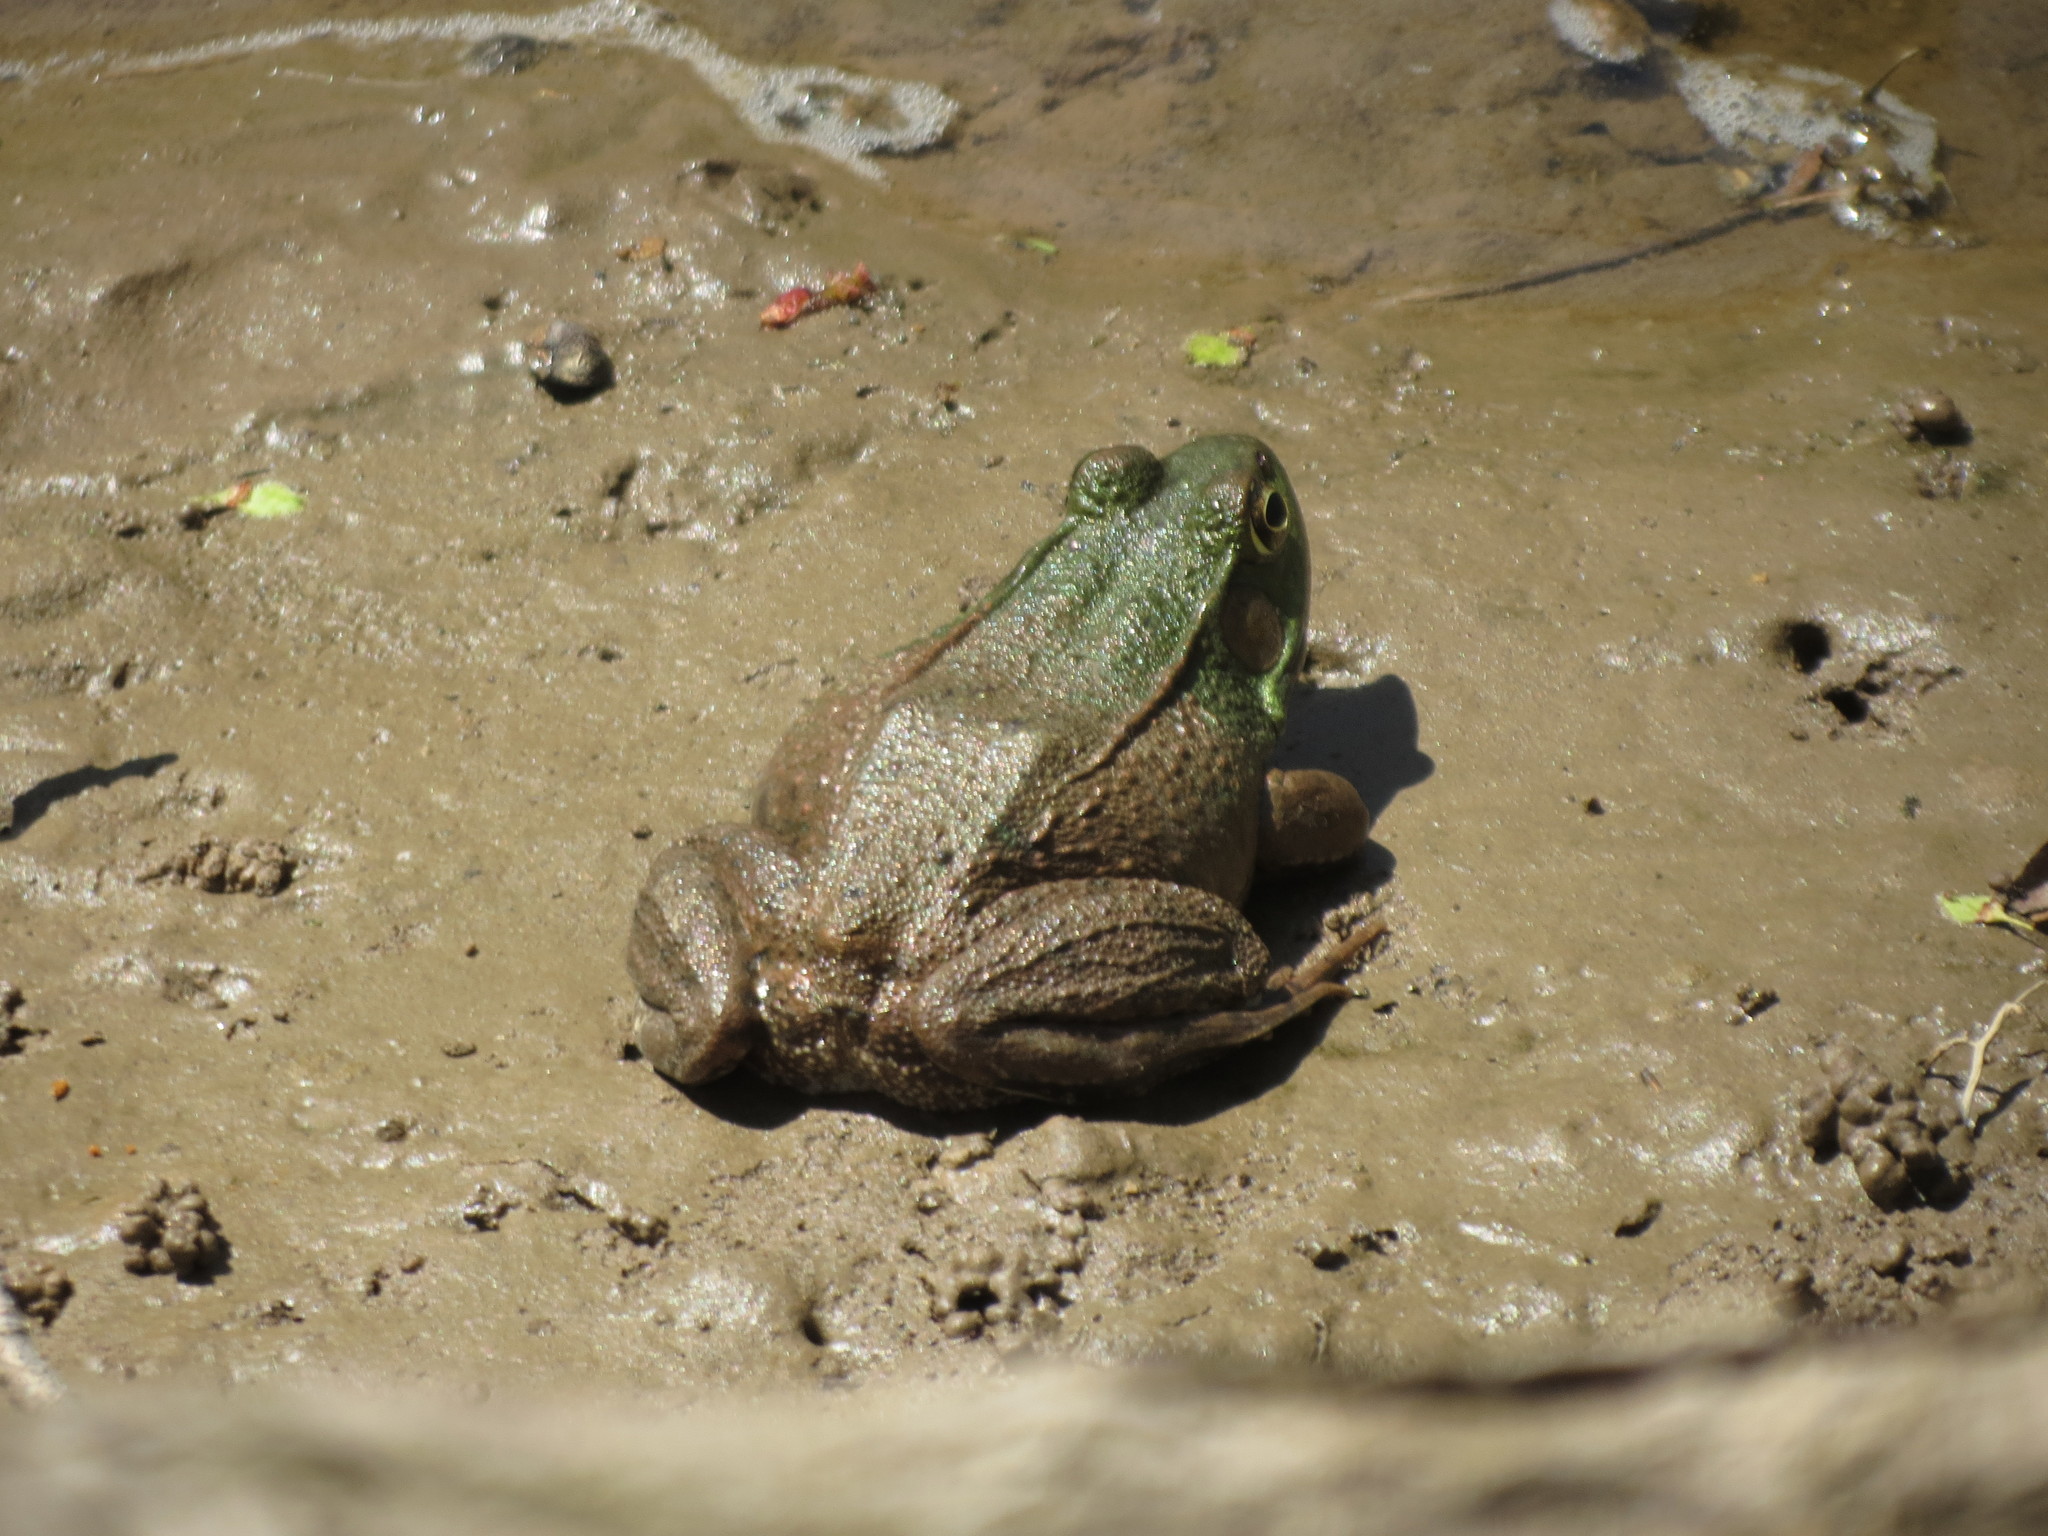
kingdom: Animalia
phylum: Chordata
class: Amphibia
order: Anura
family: Ranidae
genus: Lithobates
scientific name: Lithobates clamitans
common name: Green frog
